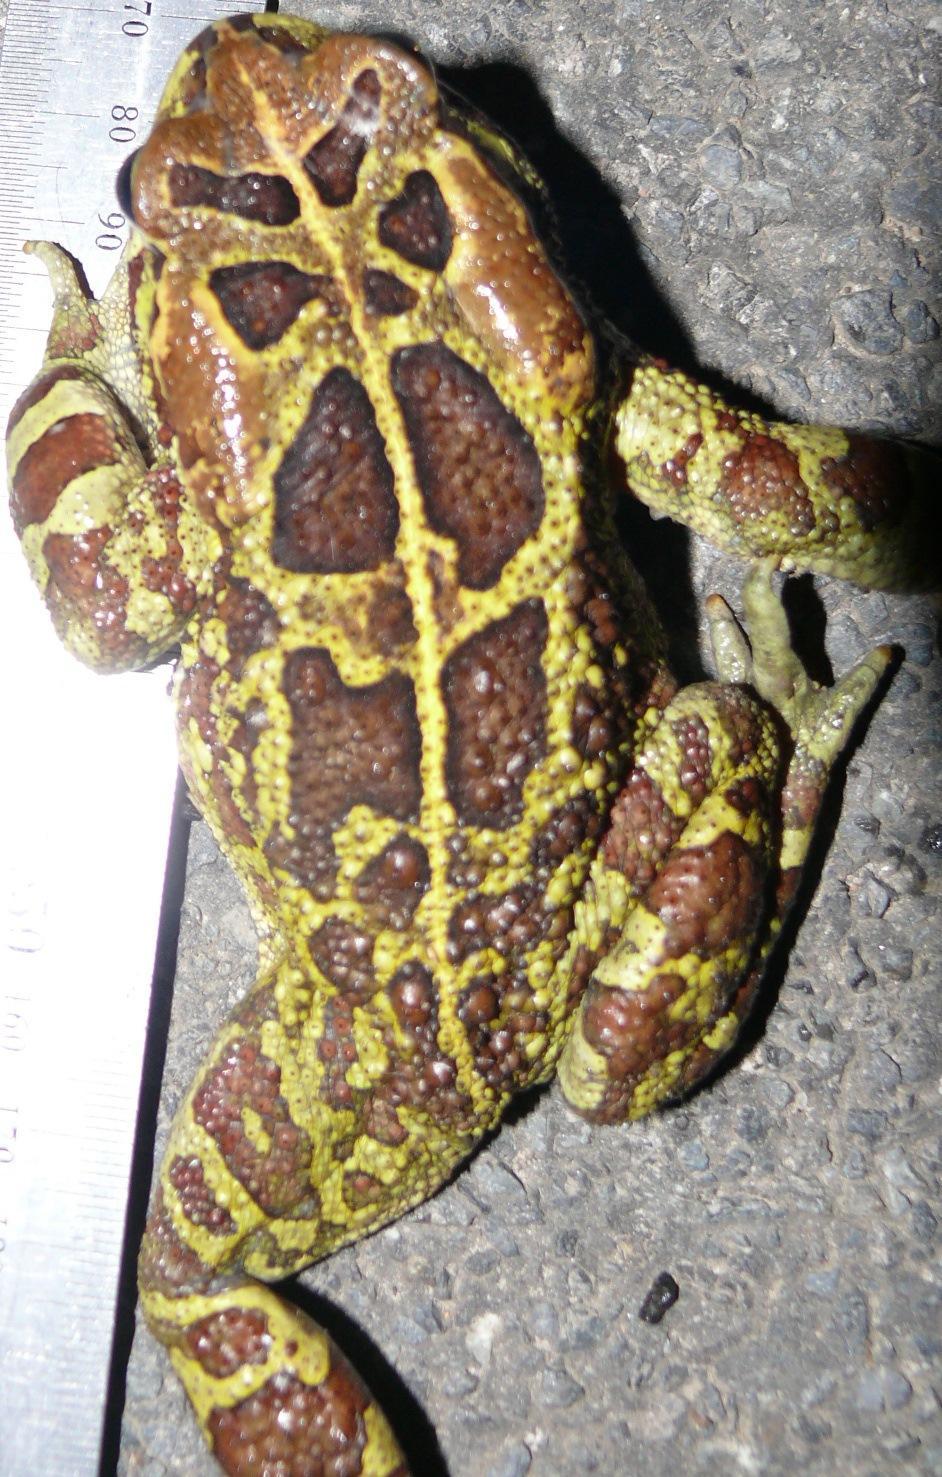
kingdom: Animalia
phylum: Chordata
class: Amphibia
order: Anura
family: Bufonidae
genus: Sclerophrys
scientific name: Sclerophrys pantherina
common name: Panther toad
